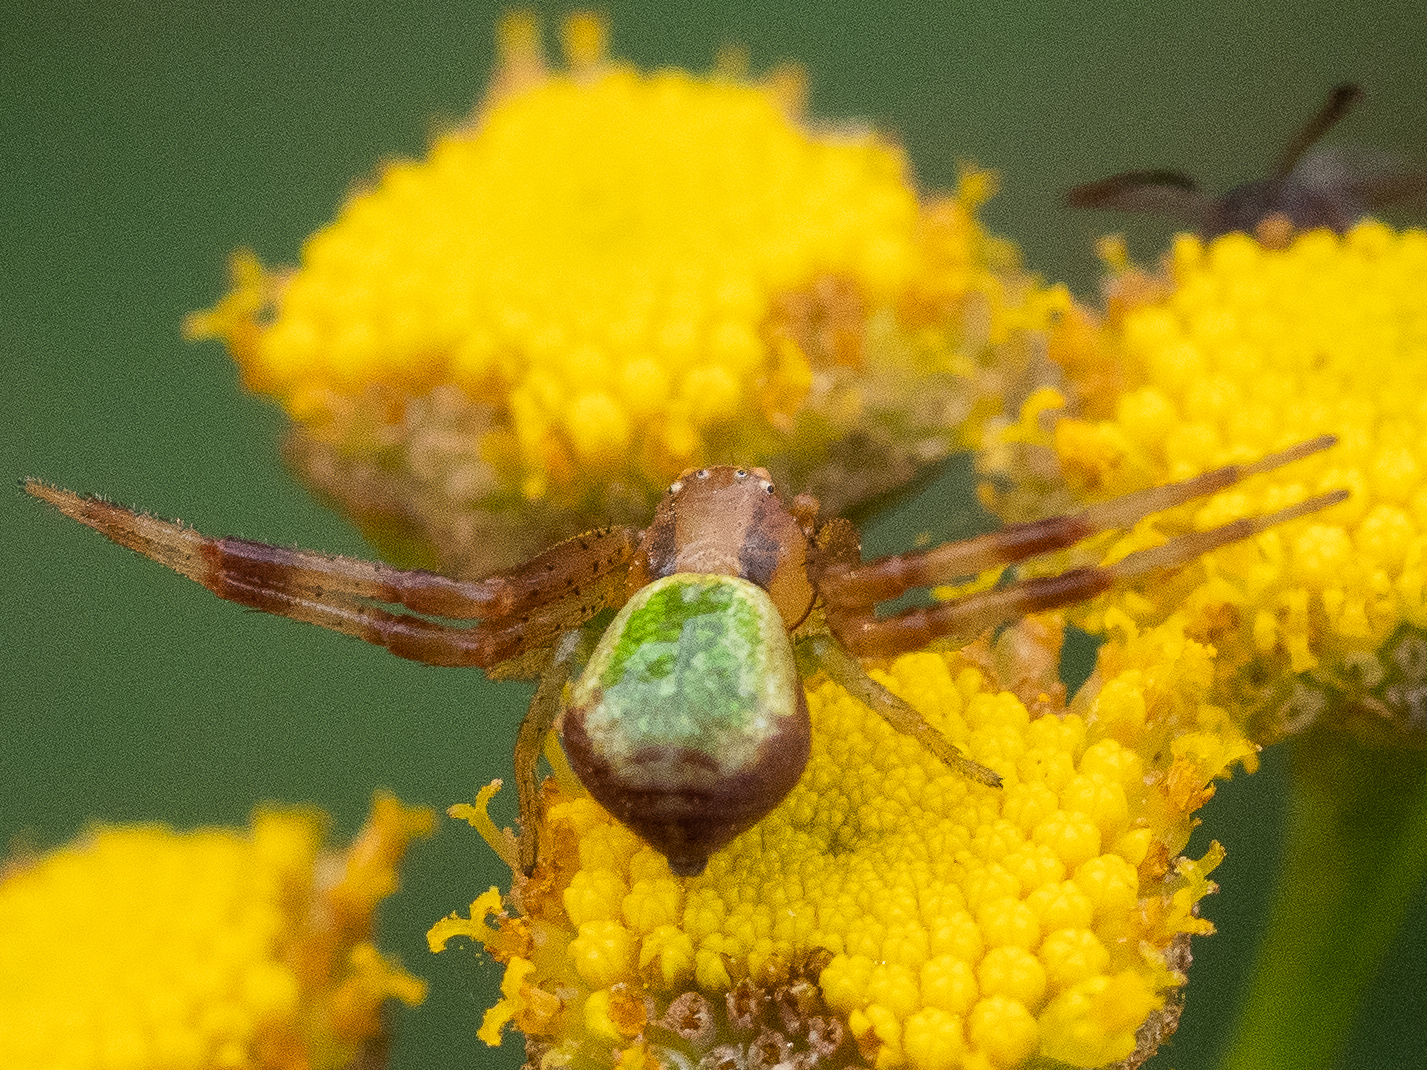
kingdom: Animalia
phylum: Arthropoda
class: Arachnida
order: Araneae
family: Thomisidae
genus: Ebrechtella
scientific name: Ebrechtella tricuspidata
